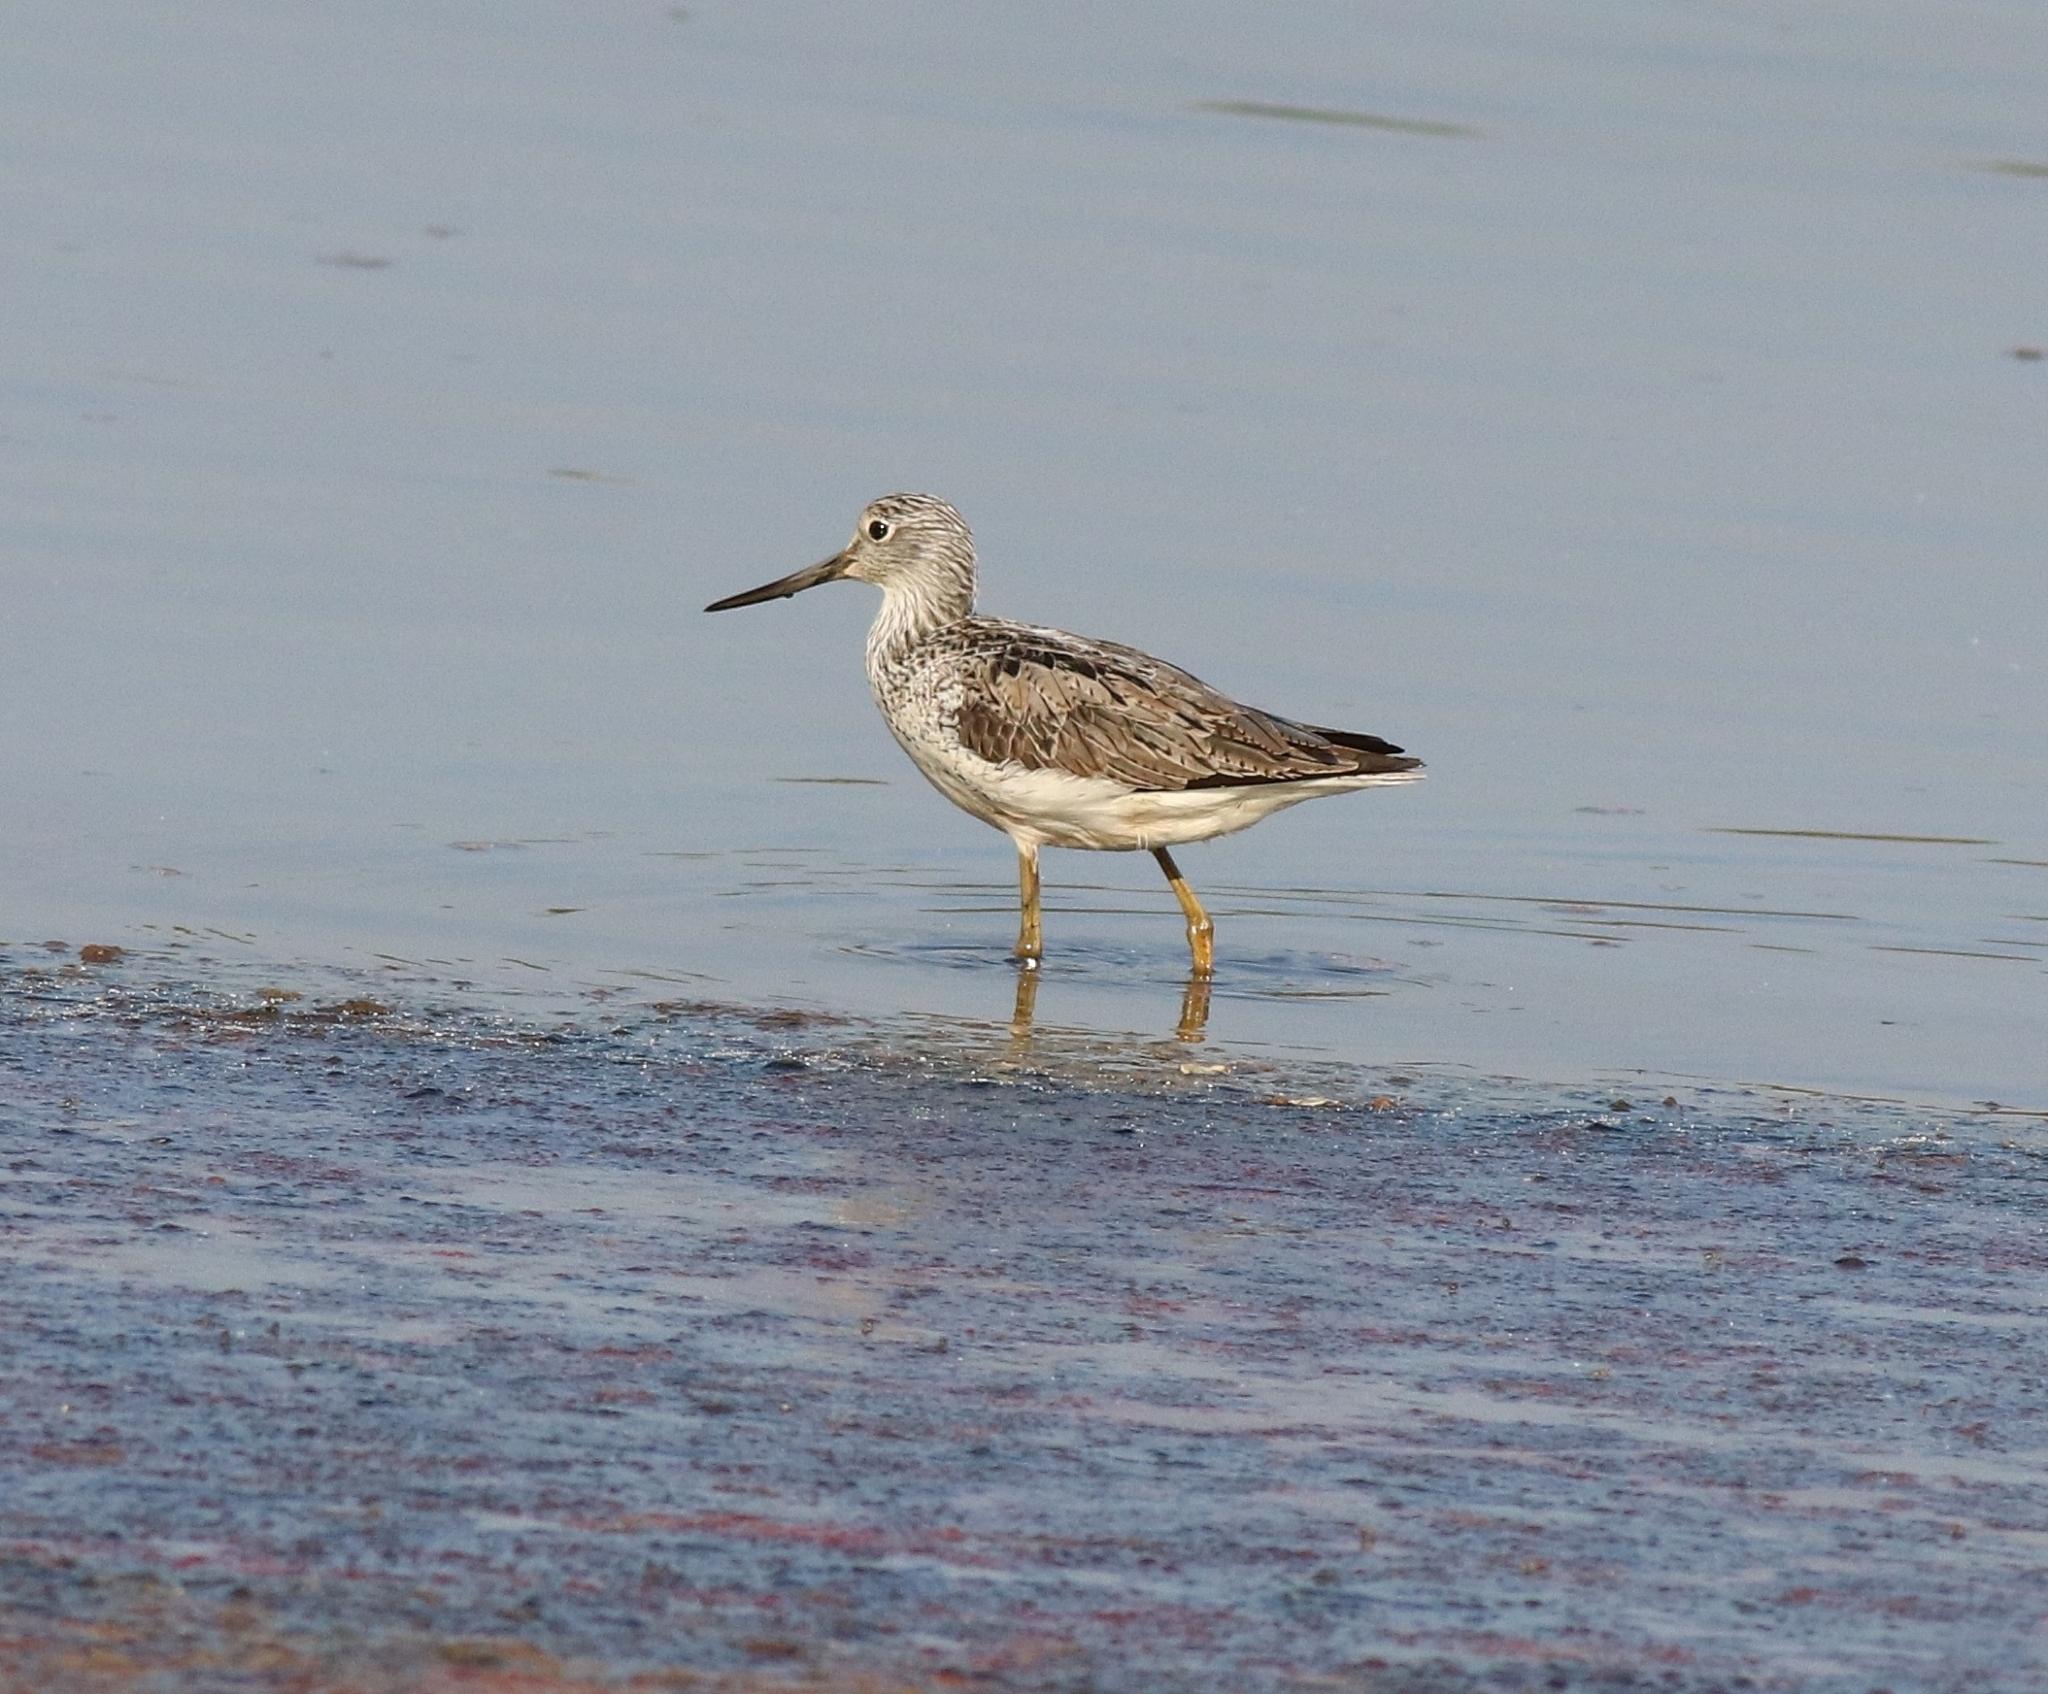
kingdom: Animalia
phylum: Chordata
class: Aves
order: Charadriiformes
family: Scolopacidae
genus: Tringa
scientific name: Tringa nebularia
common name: Common greenshank
